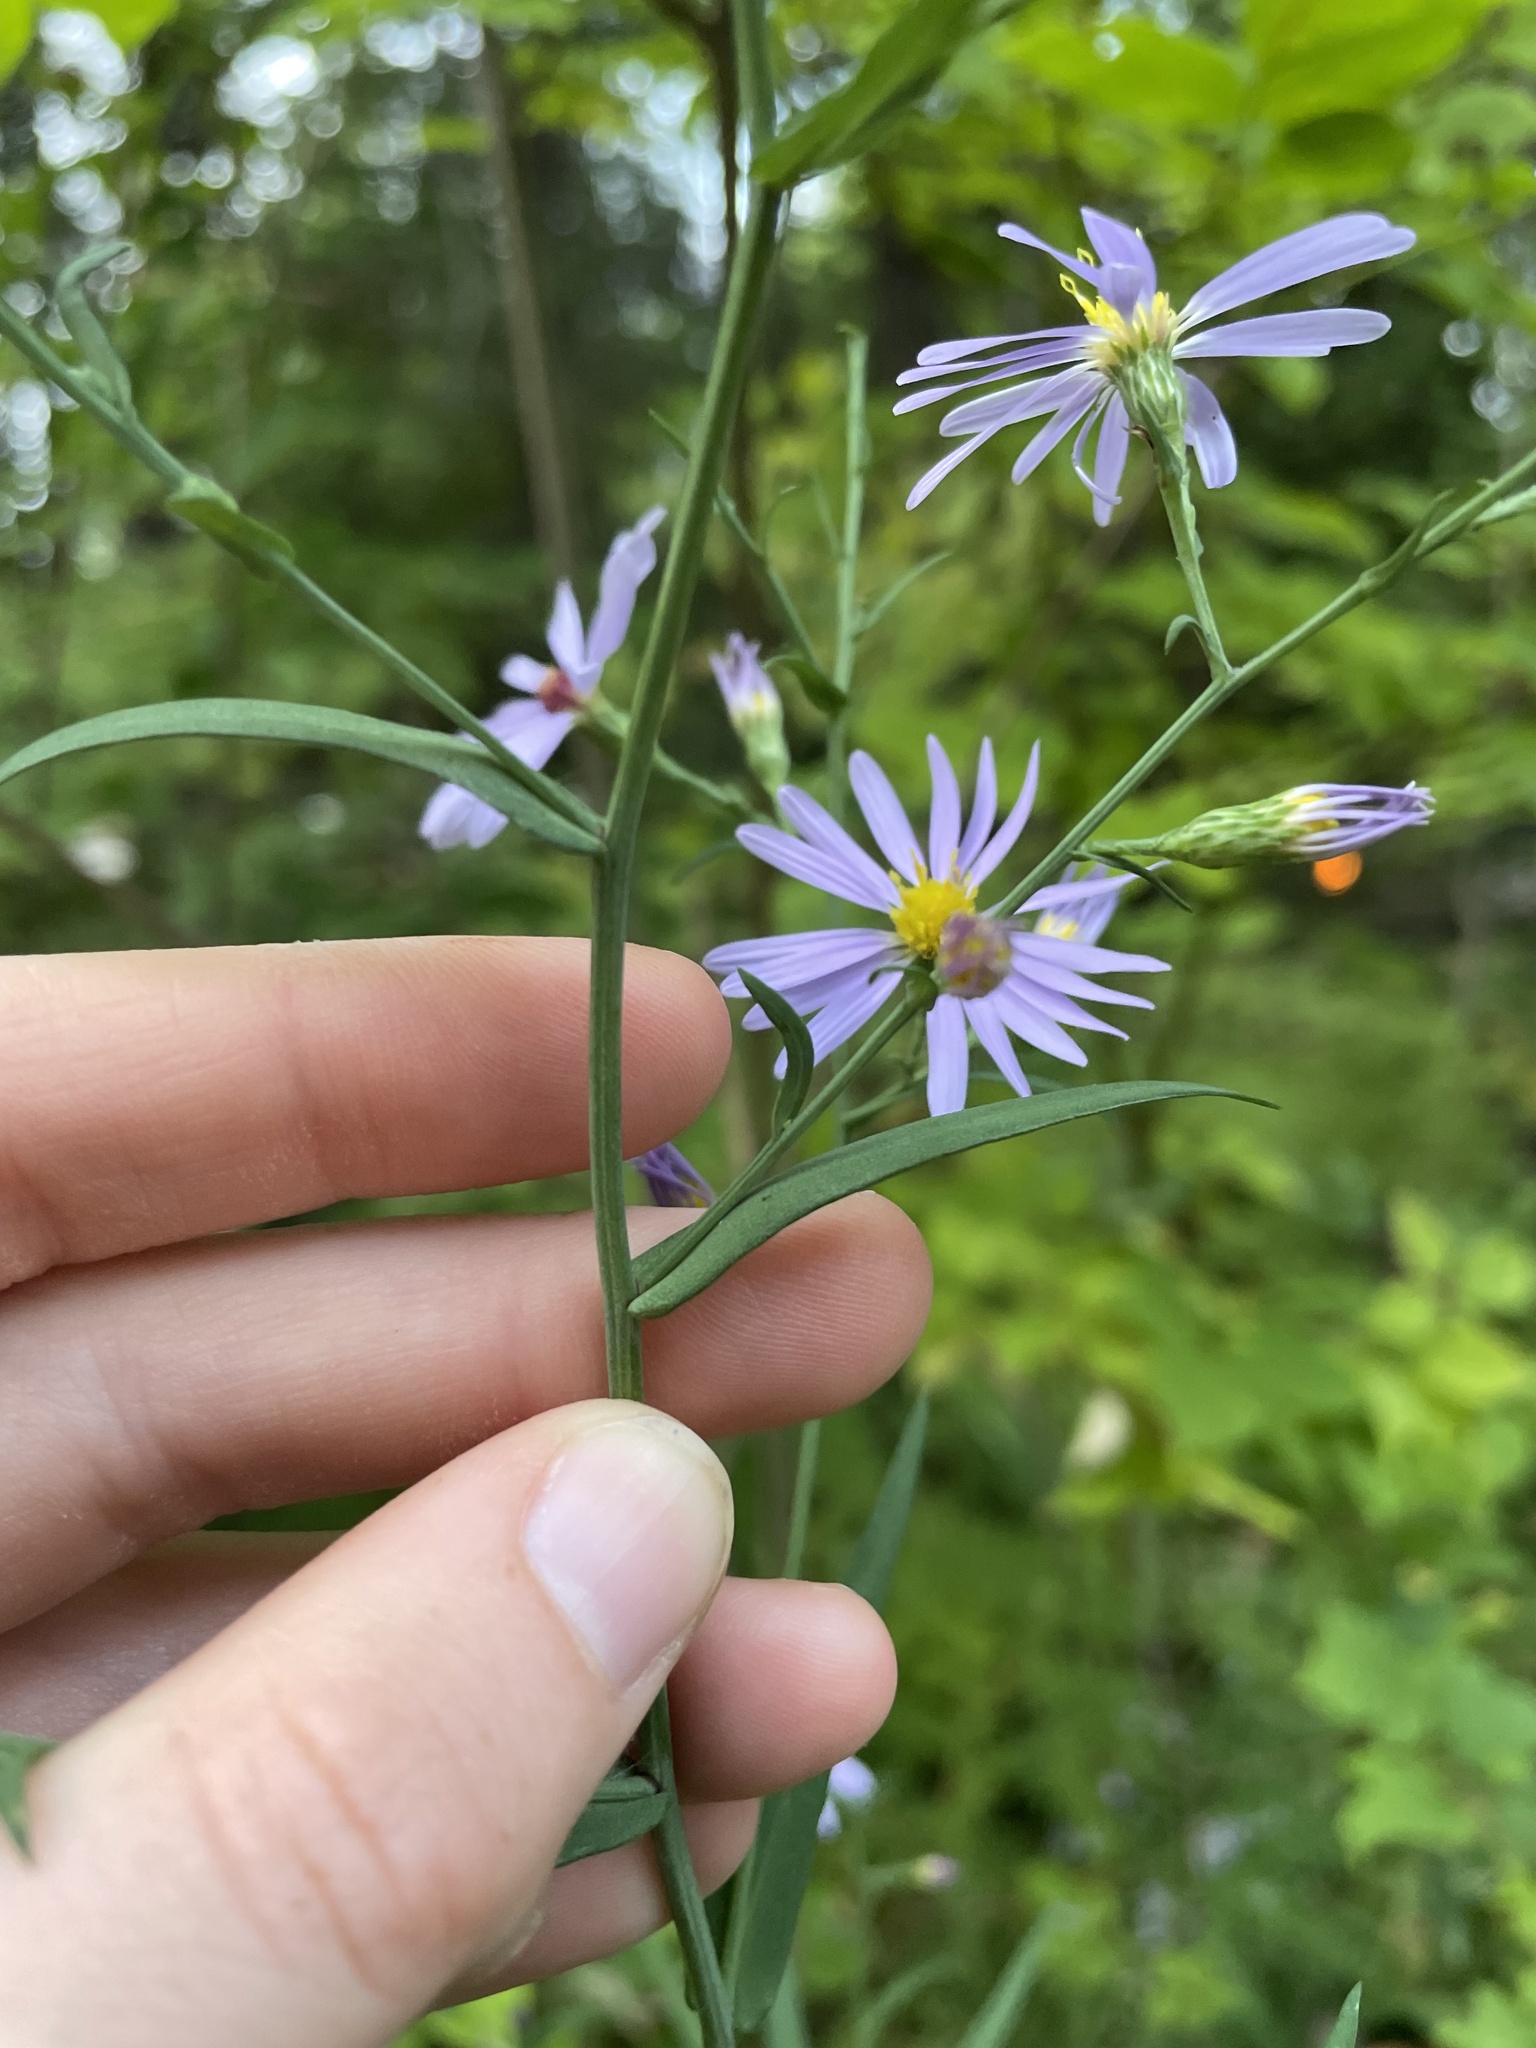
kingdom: Plantae
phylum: Tracheophyta
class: Magnoliopsida
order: Asterales
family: Asteraceae
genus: Symphyotrichum
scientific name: Symphyotrichum laeve
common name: Glaucous aster
